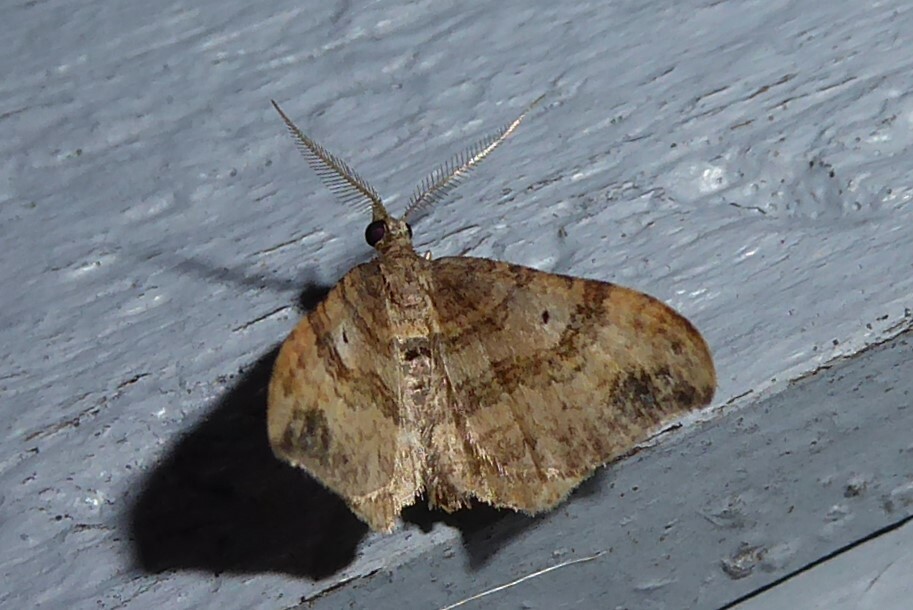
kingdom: Animalia
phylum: Arthropoda
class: Insecta
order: Lepidoptera
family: Geometridae
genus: Homodotis
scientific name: Homodotis megaspilata
